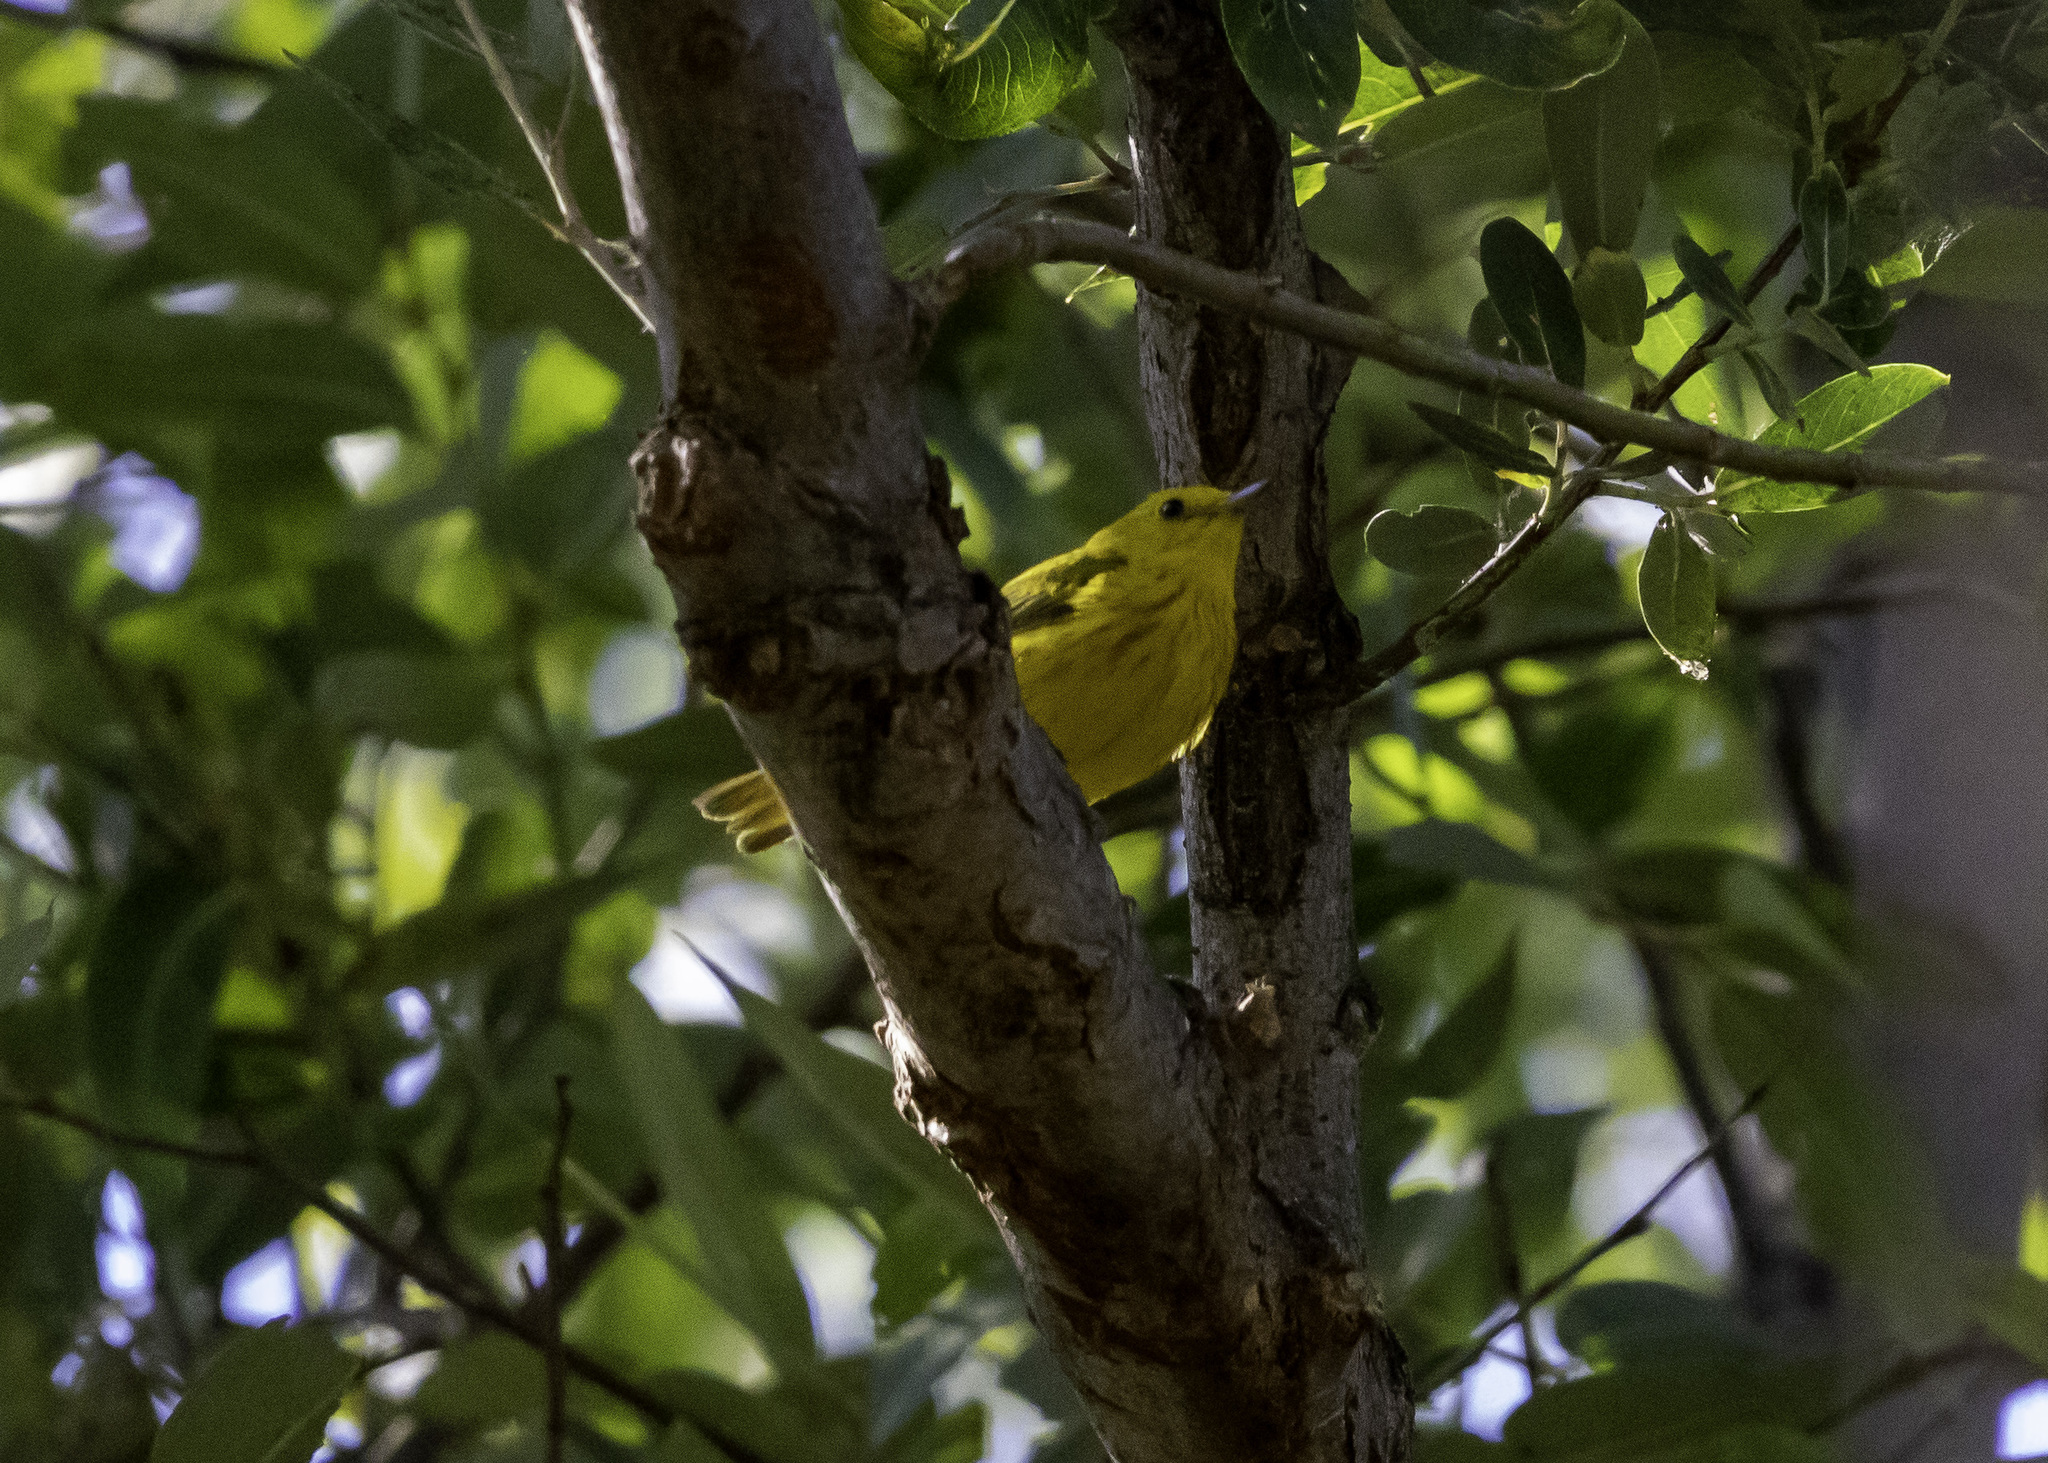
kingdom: Animalia
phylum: Chordata
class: Aves
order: Passeriformes
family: Parulidae
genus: Setophaga
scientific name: Setophaga petechia
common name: Yellow warbler
